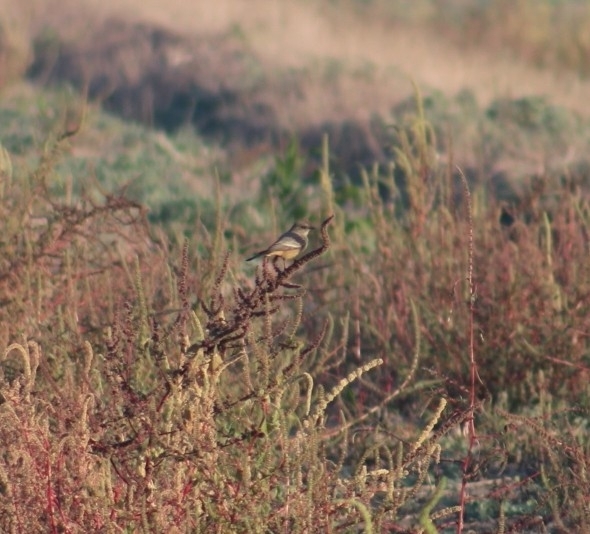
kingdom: Animalia
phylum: Chordata
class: Aves
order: Passeriformes
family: Tyrannidae
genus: Sayornis
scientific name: Sayornis saya
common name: Say's phoebe
